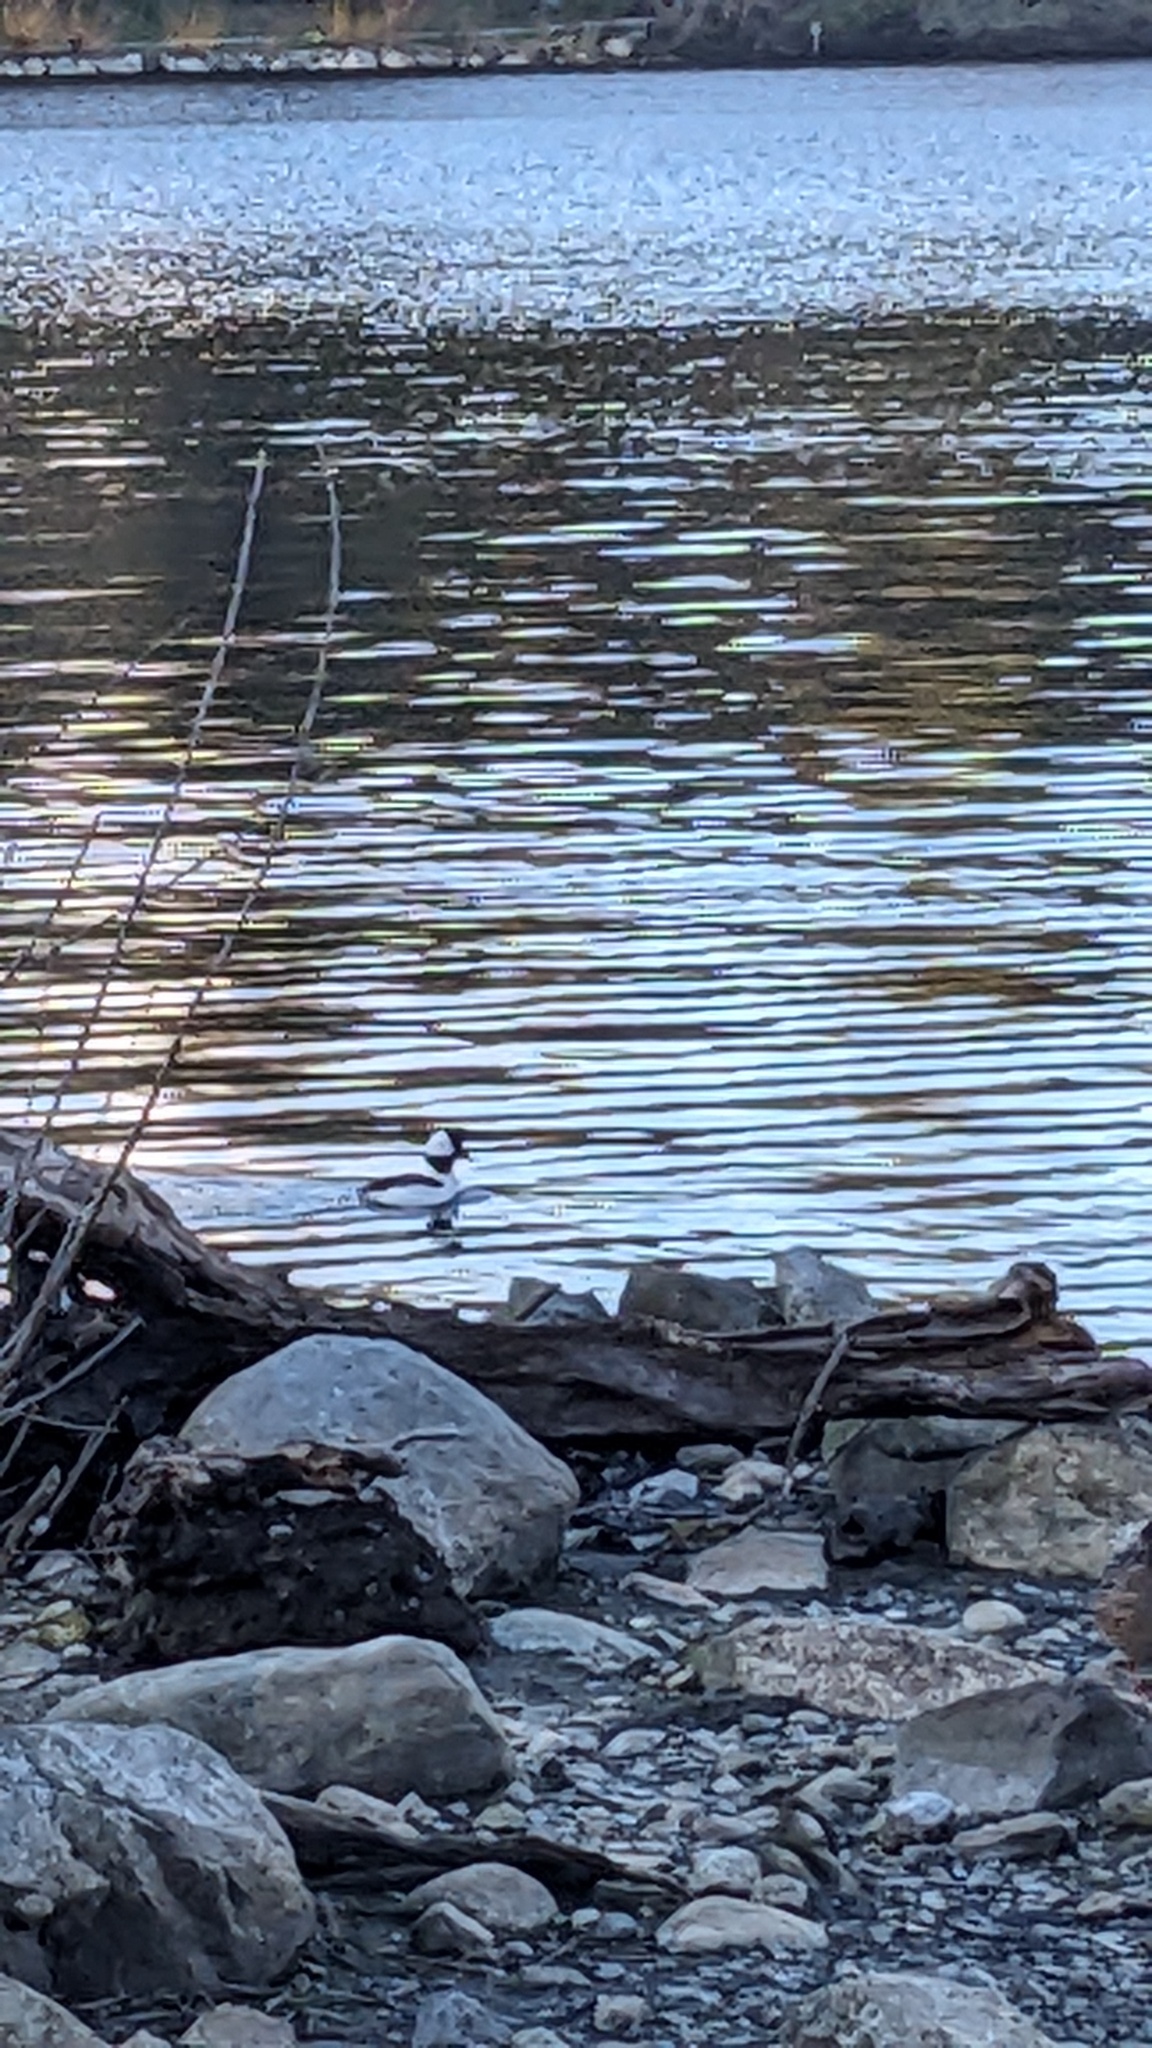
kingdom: Animalia
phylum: Chordata
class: Aves
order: Anseriformes
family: Anatidae
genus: Bucephala
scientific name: Bucephala albeola
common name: Bufflehead
